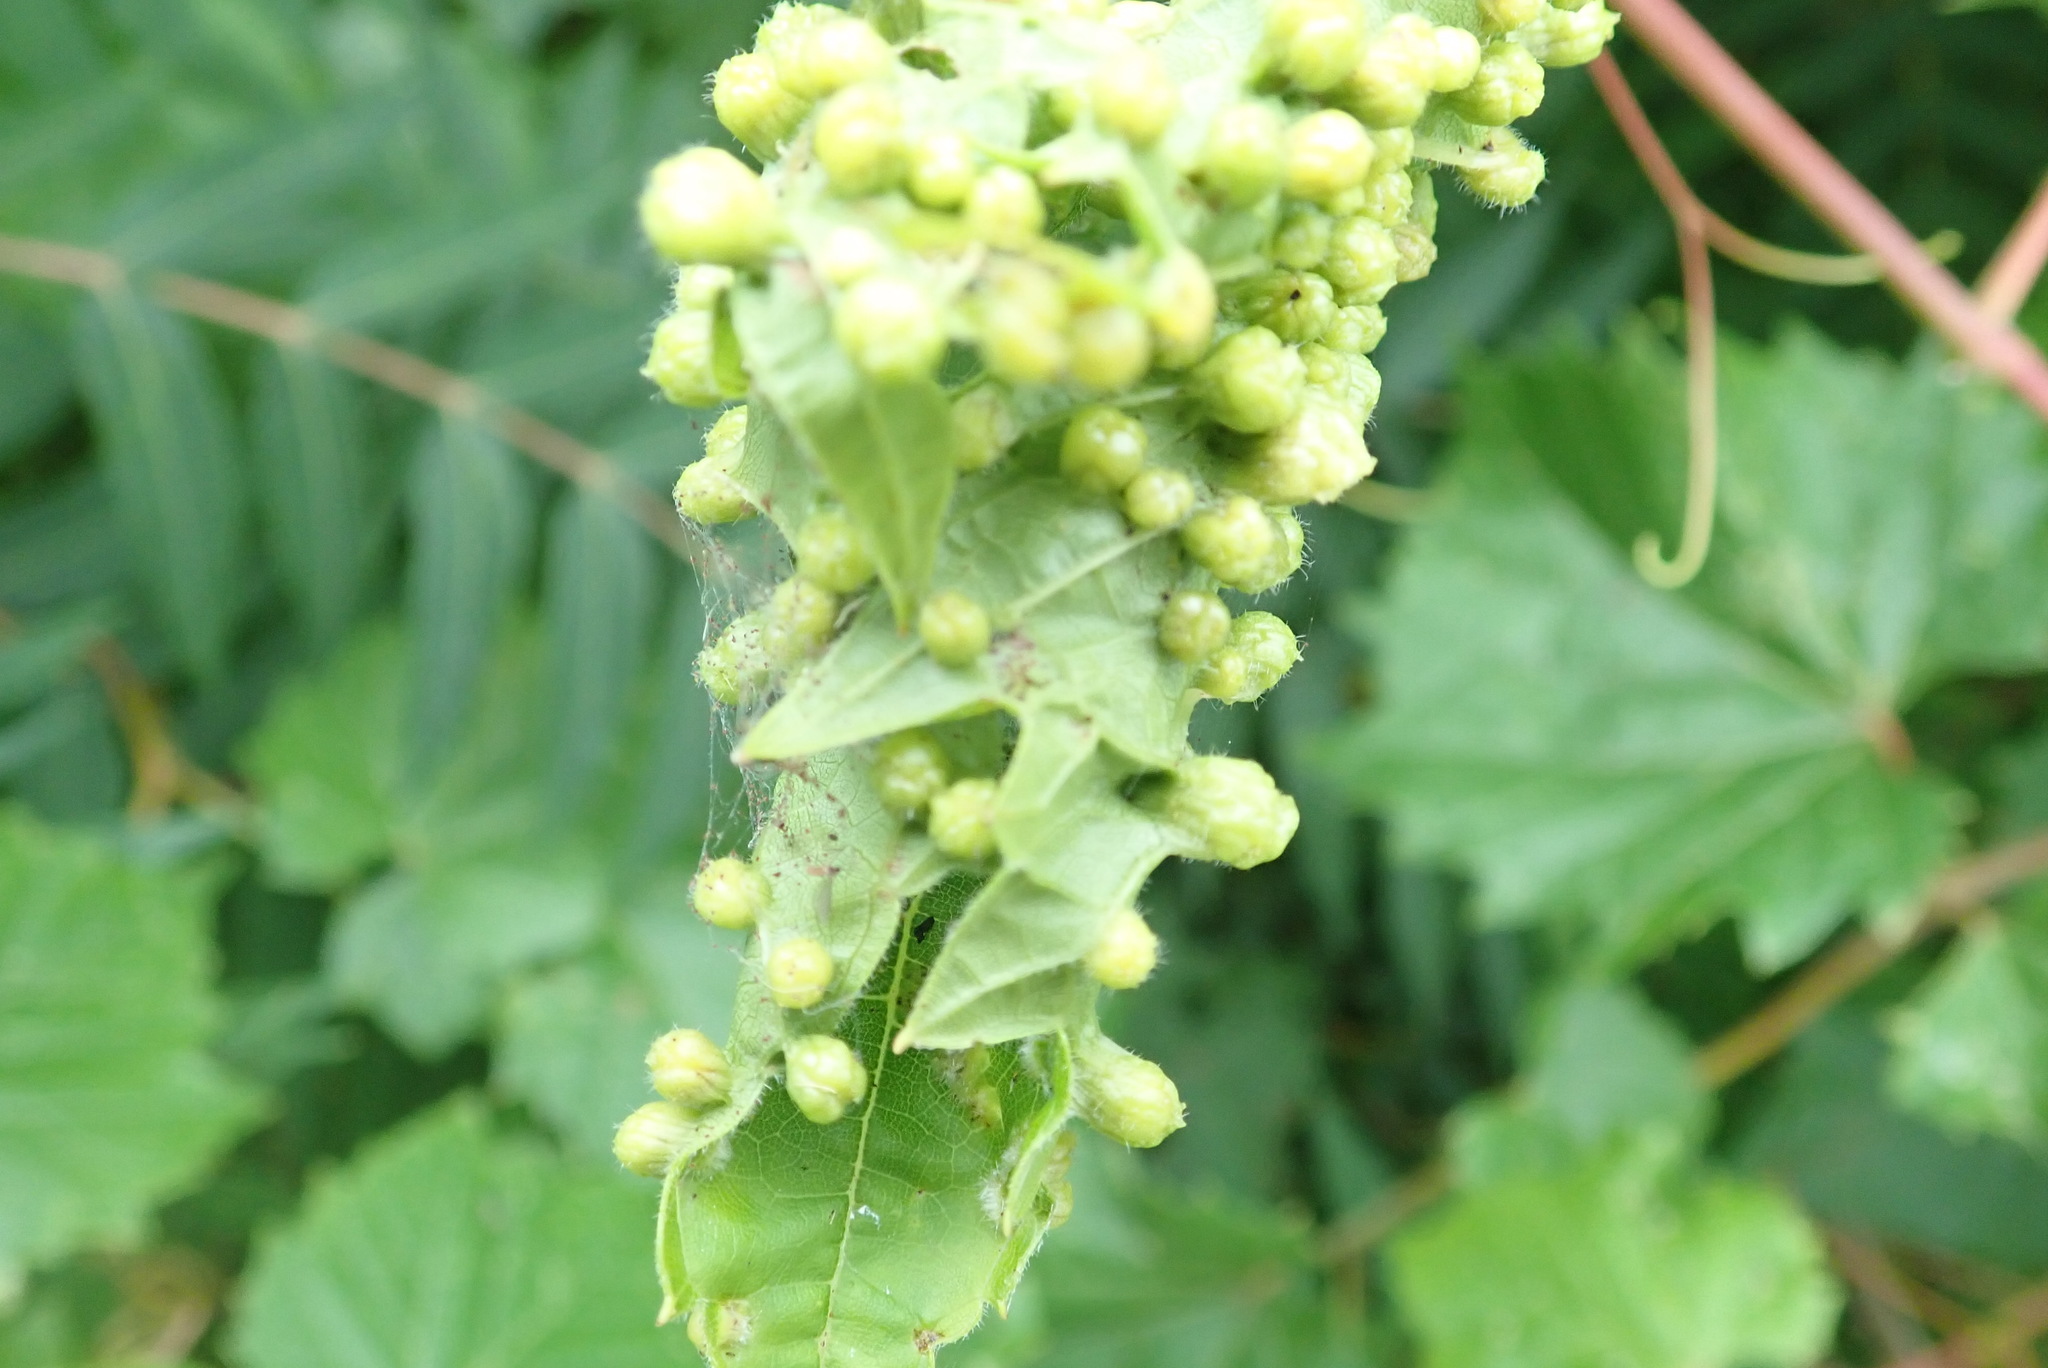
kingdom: Animalia
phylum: Arthropoda
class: Insecta
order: Hemiptera
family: Phylloxeridae
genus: Daktulosphaira
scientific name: Daktulosphaira vitifoliae
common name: Grape phylloxera
